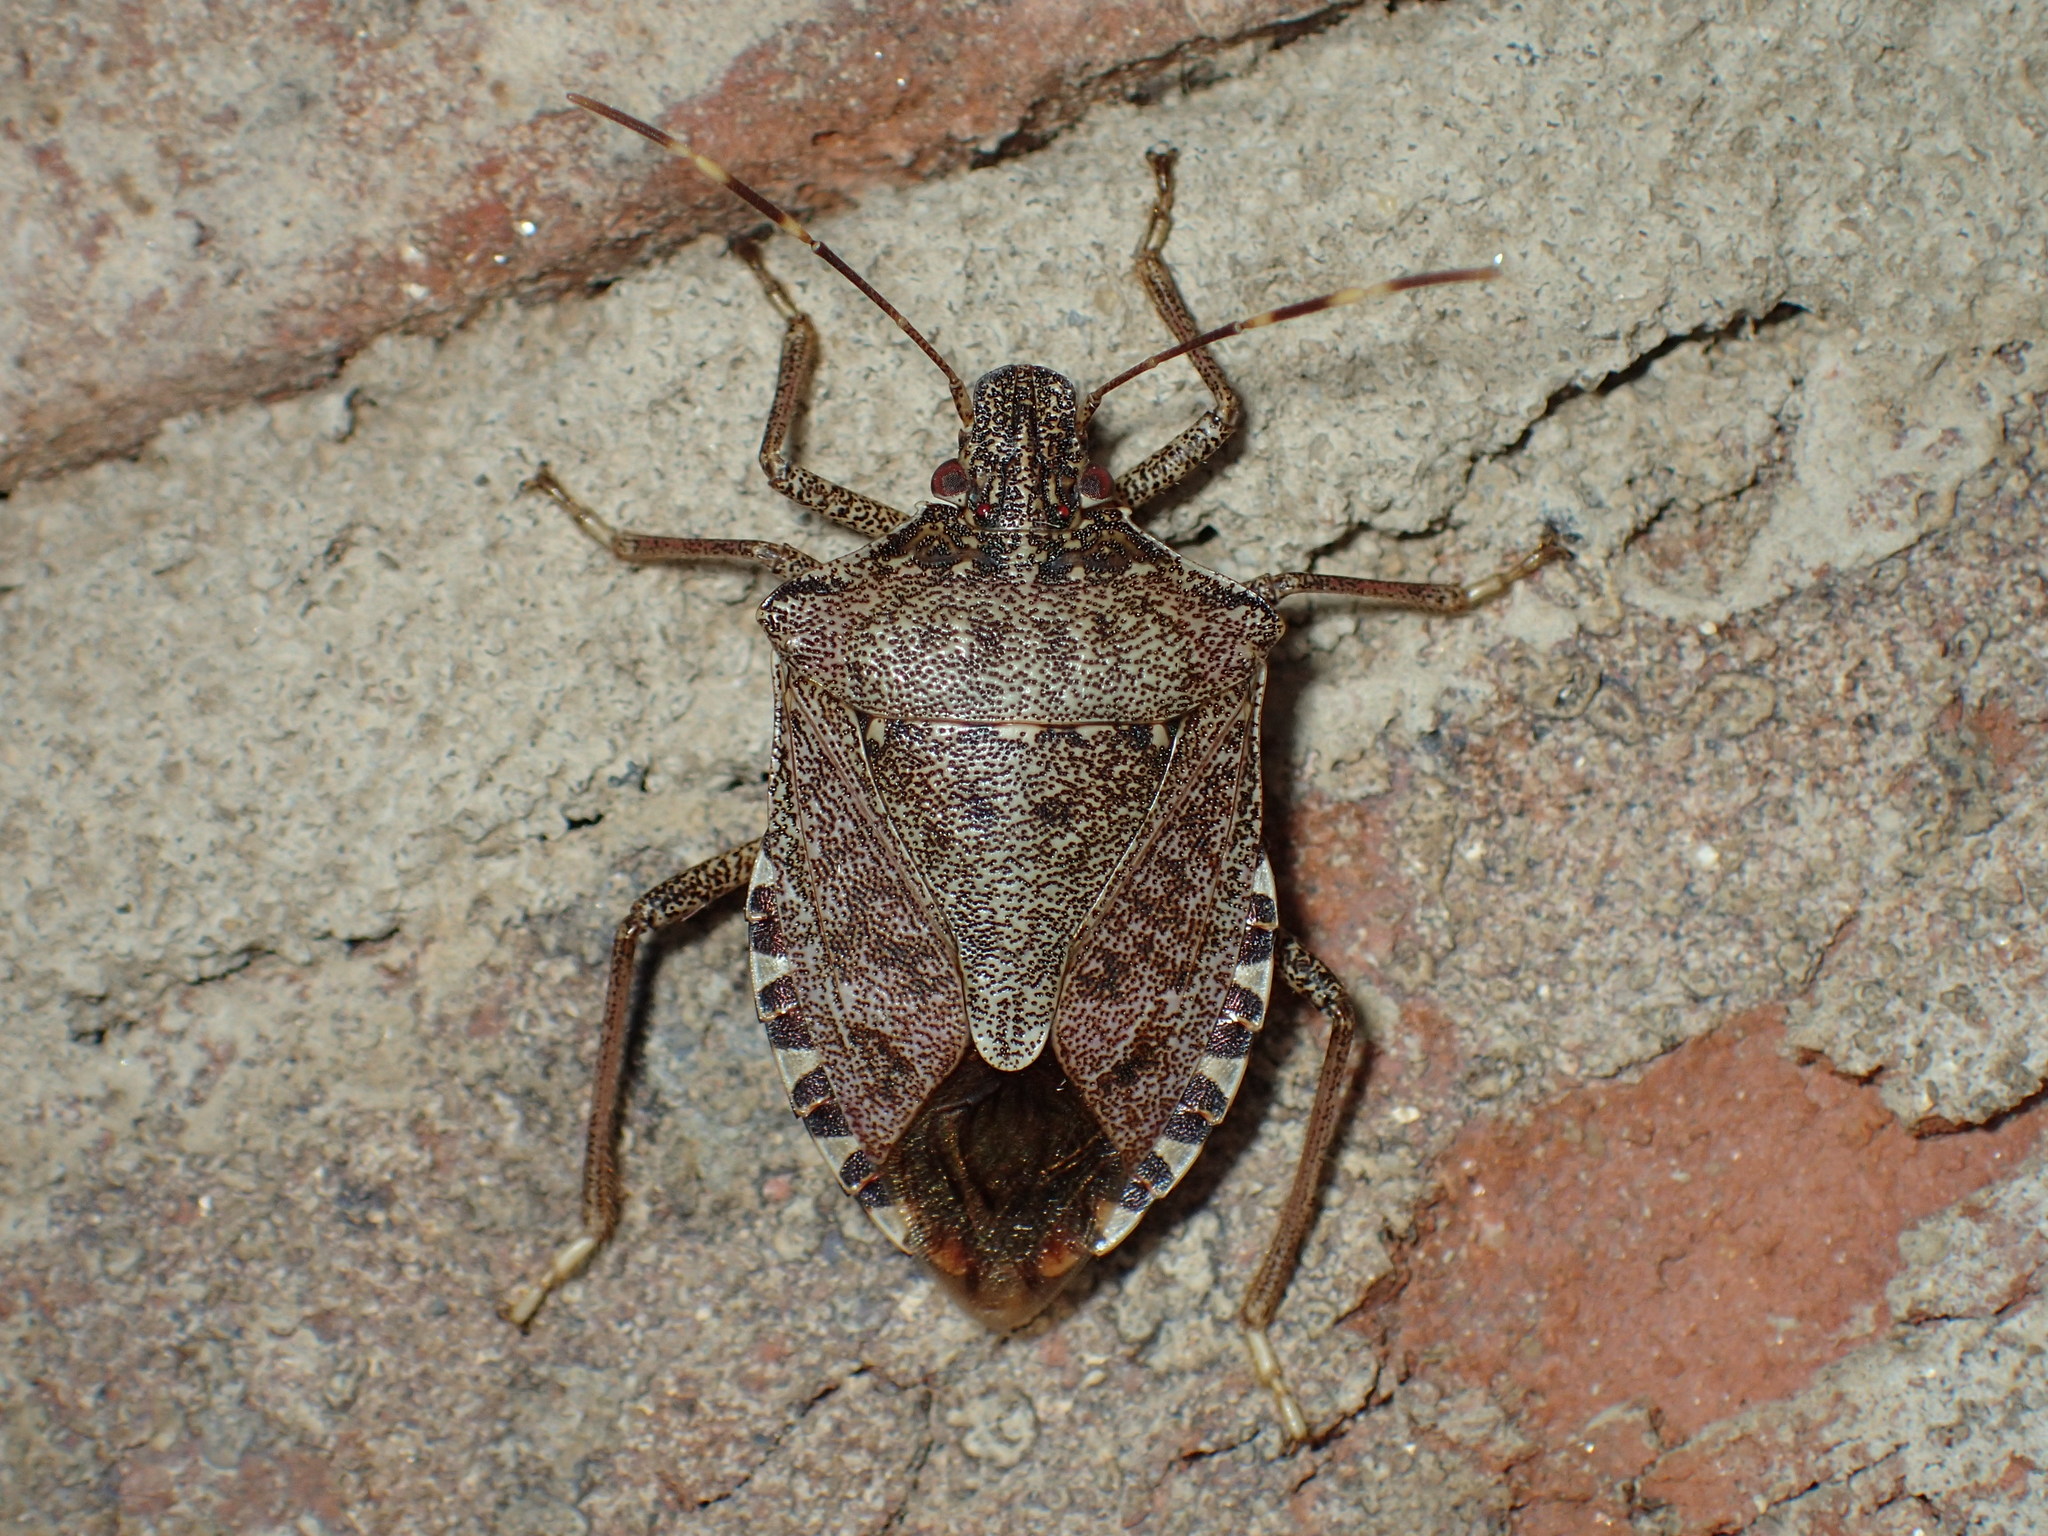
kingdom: Animalia
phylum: Arthropoda
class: Insecta
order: Hemiptera
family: Pentatomidae
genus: Halyomorpha
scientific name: Halyomorpha halys
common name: Brown marmorated stink bug
